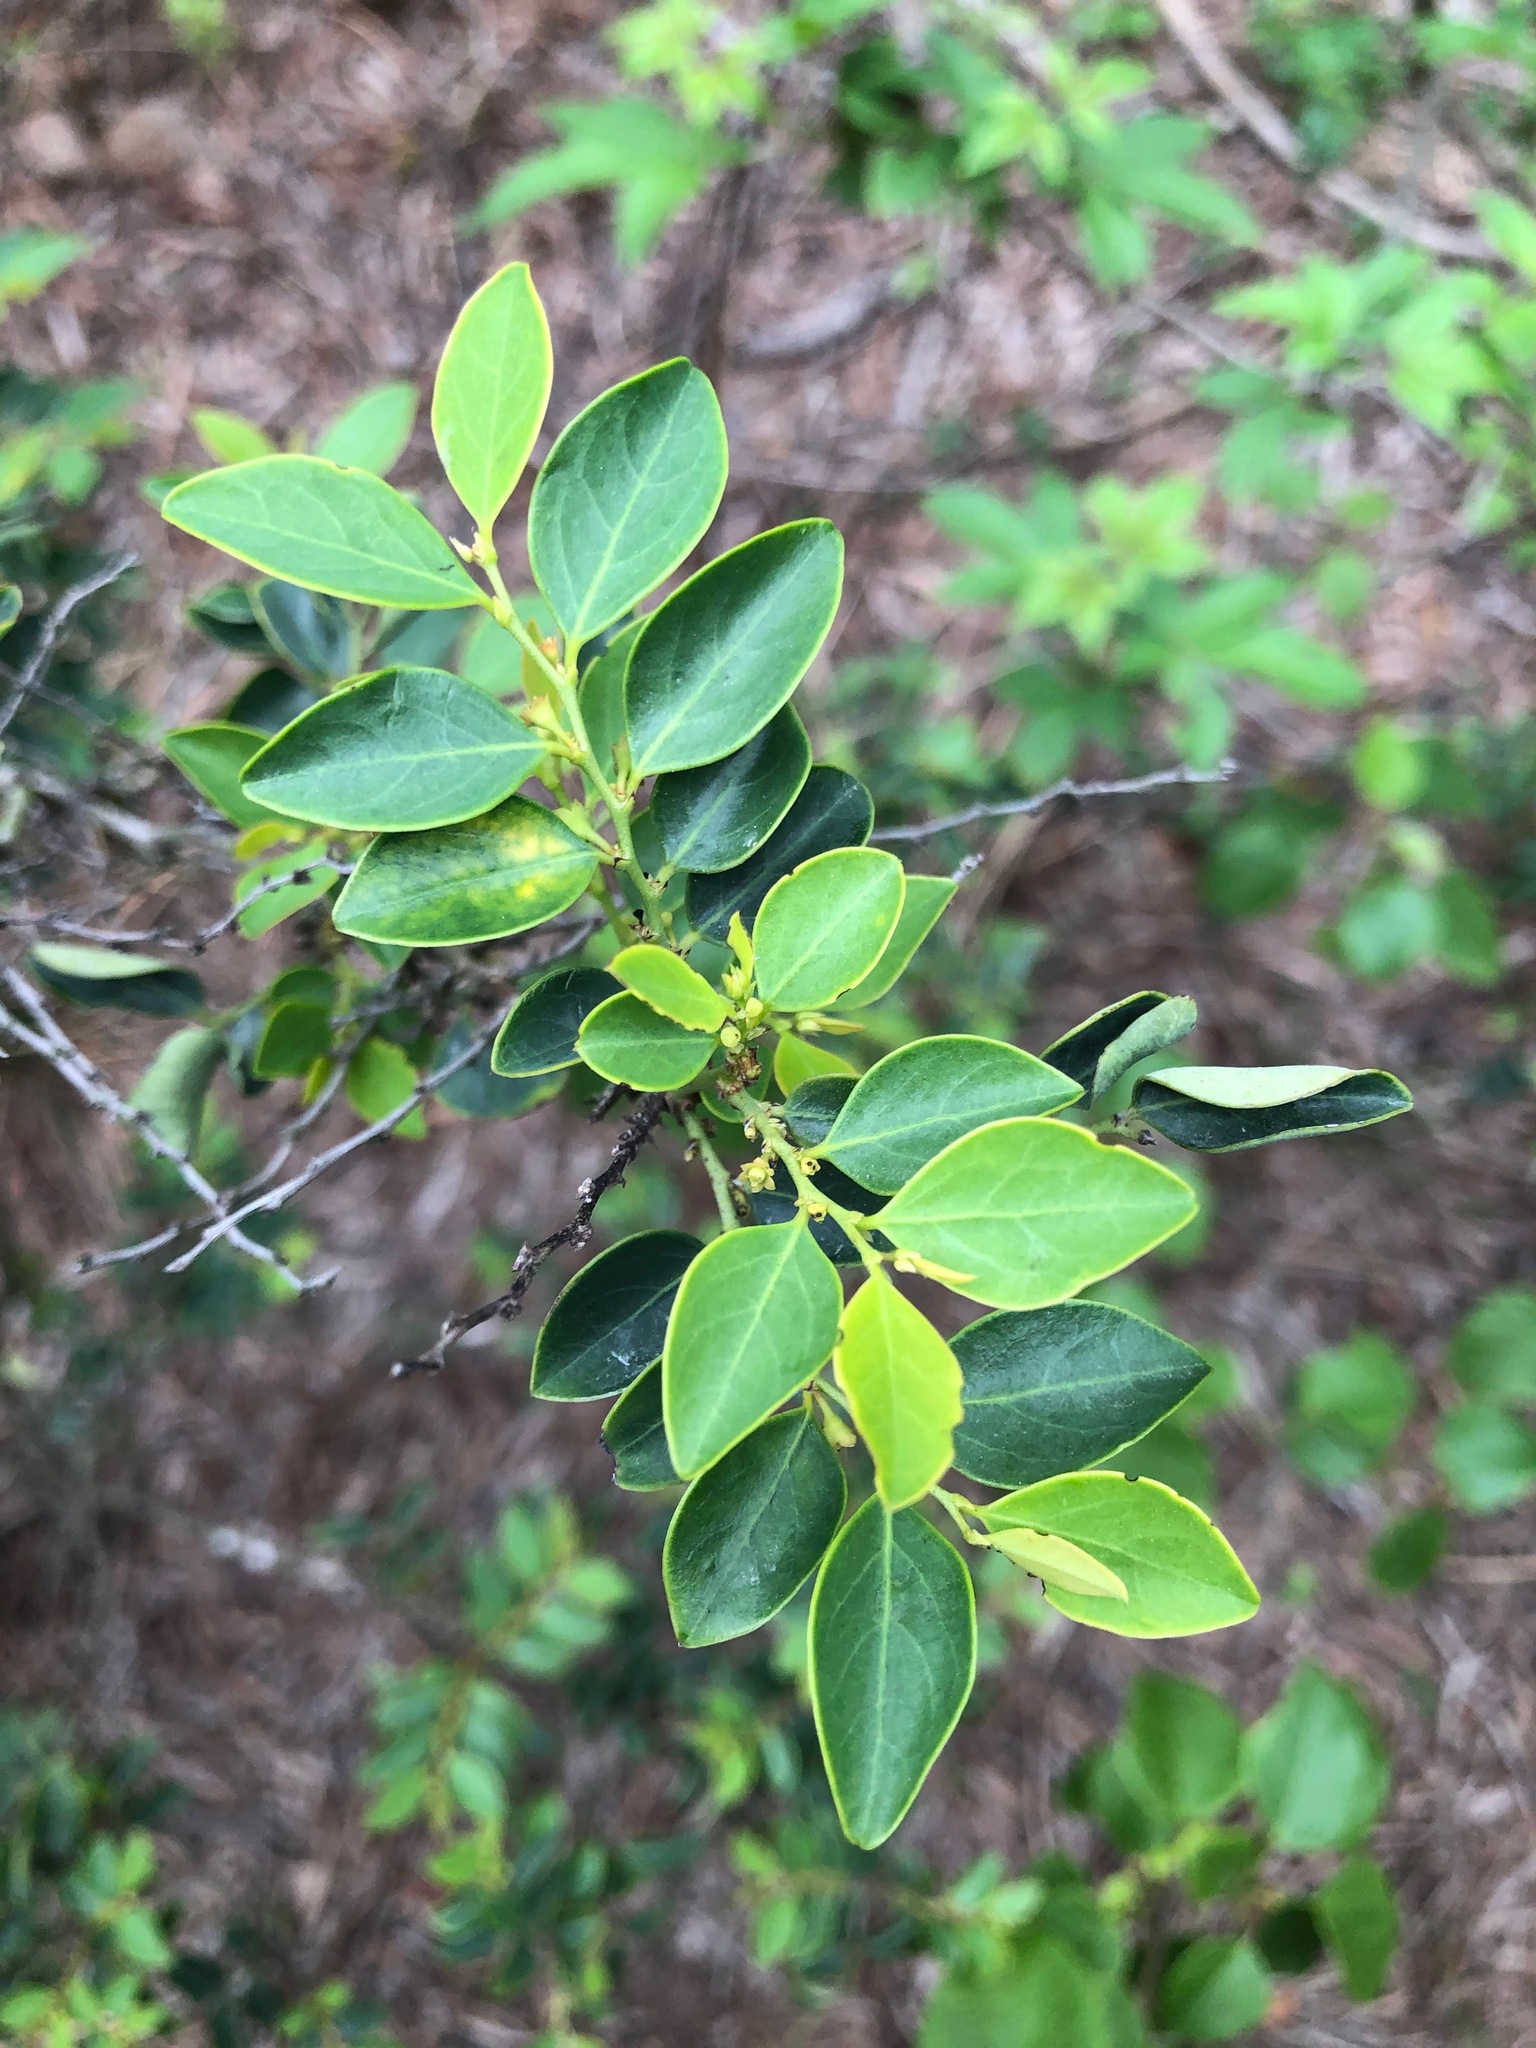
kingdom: Plantae
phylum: Tracheophyta
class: Magnoliopsida
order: Malpighiales
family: Phyllanthaceae
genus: Breynia
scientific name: Breynia fruticosa
